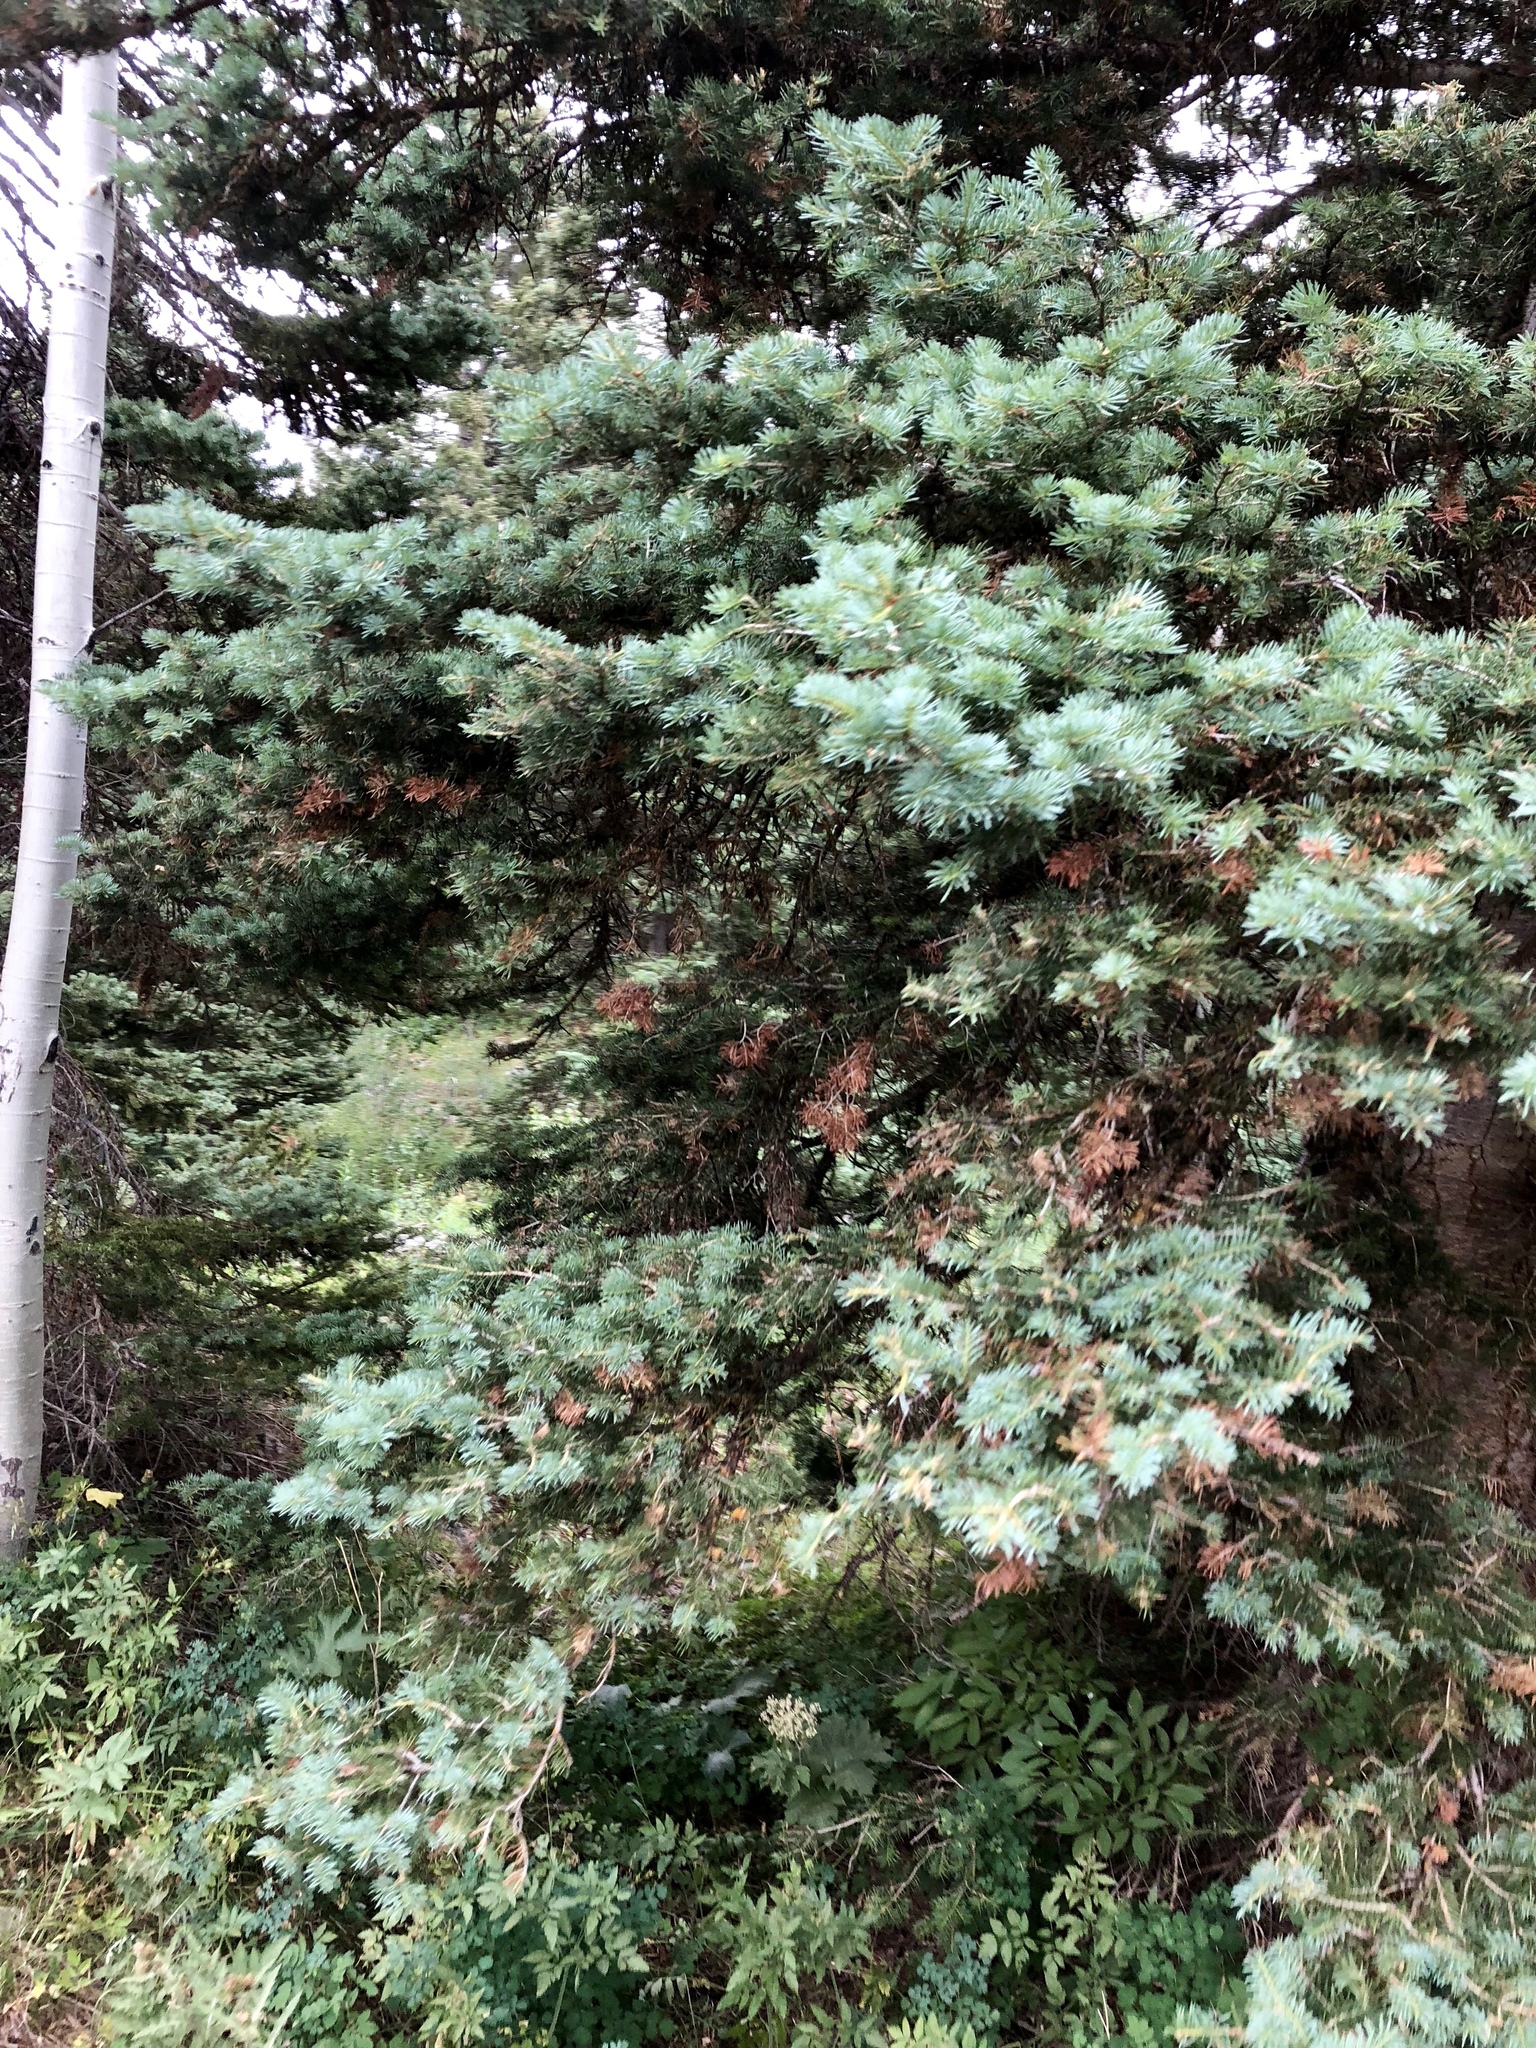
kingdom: Plantae
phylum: Tracheophyta
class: Pinopsida
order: Pinales
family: Pinaceae
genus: Picea
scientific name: Picea pungens
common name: Colorado spruce
